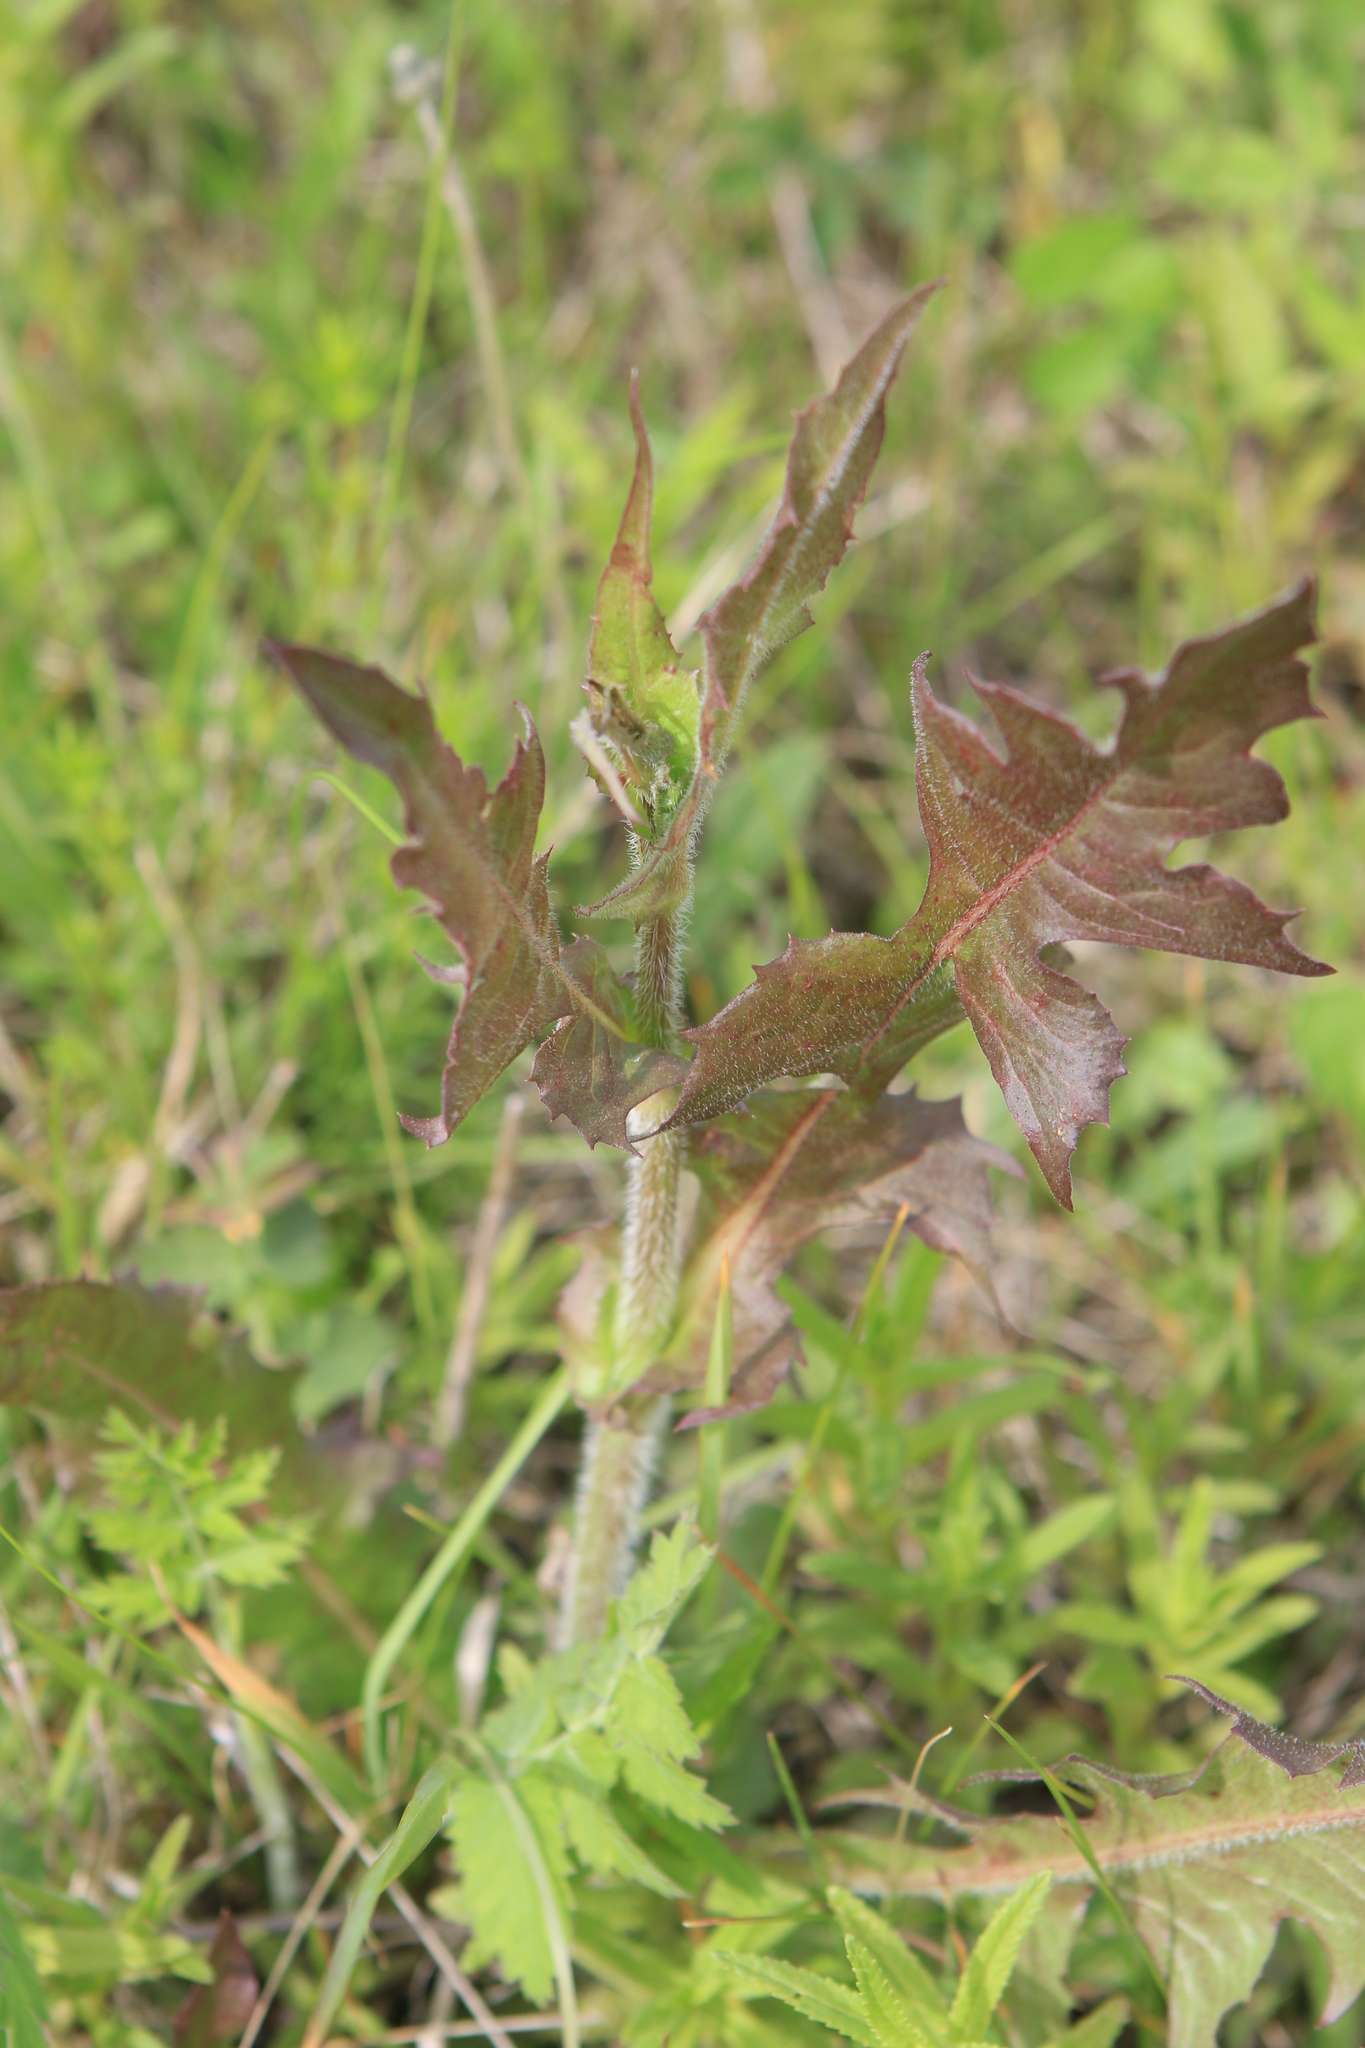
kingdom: Plantae
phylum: Tracheophyta
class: Magnoliopsida
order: Asterales
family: Asteraceae
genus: Cichorium
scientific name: Cichorium intybus
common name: Chicory
